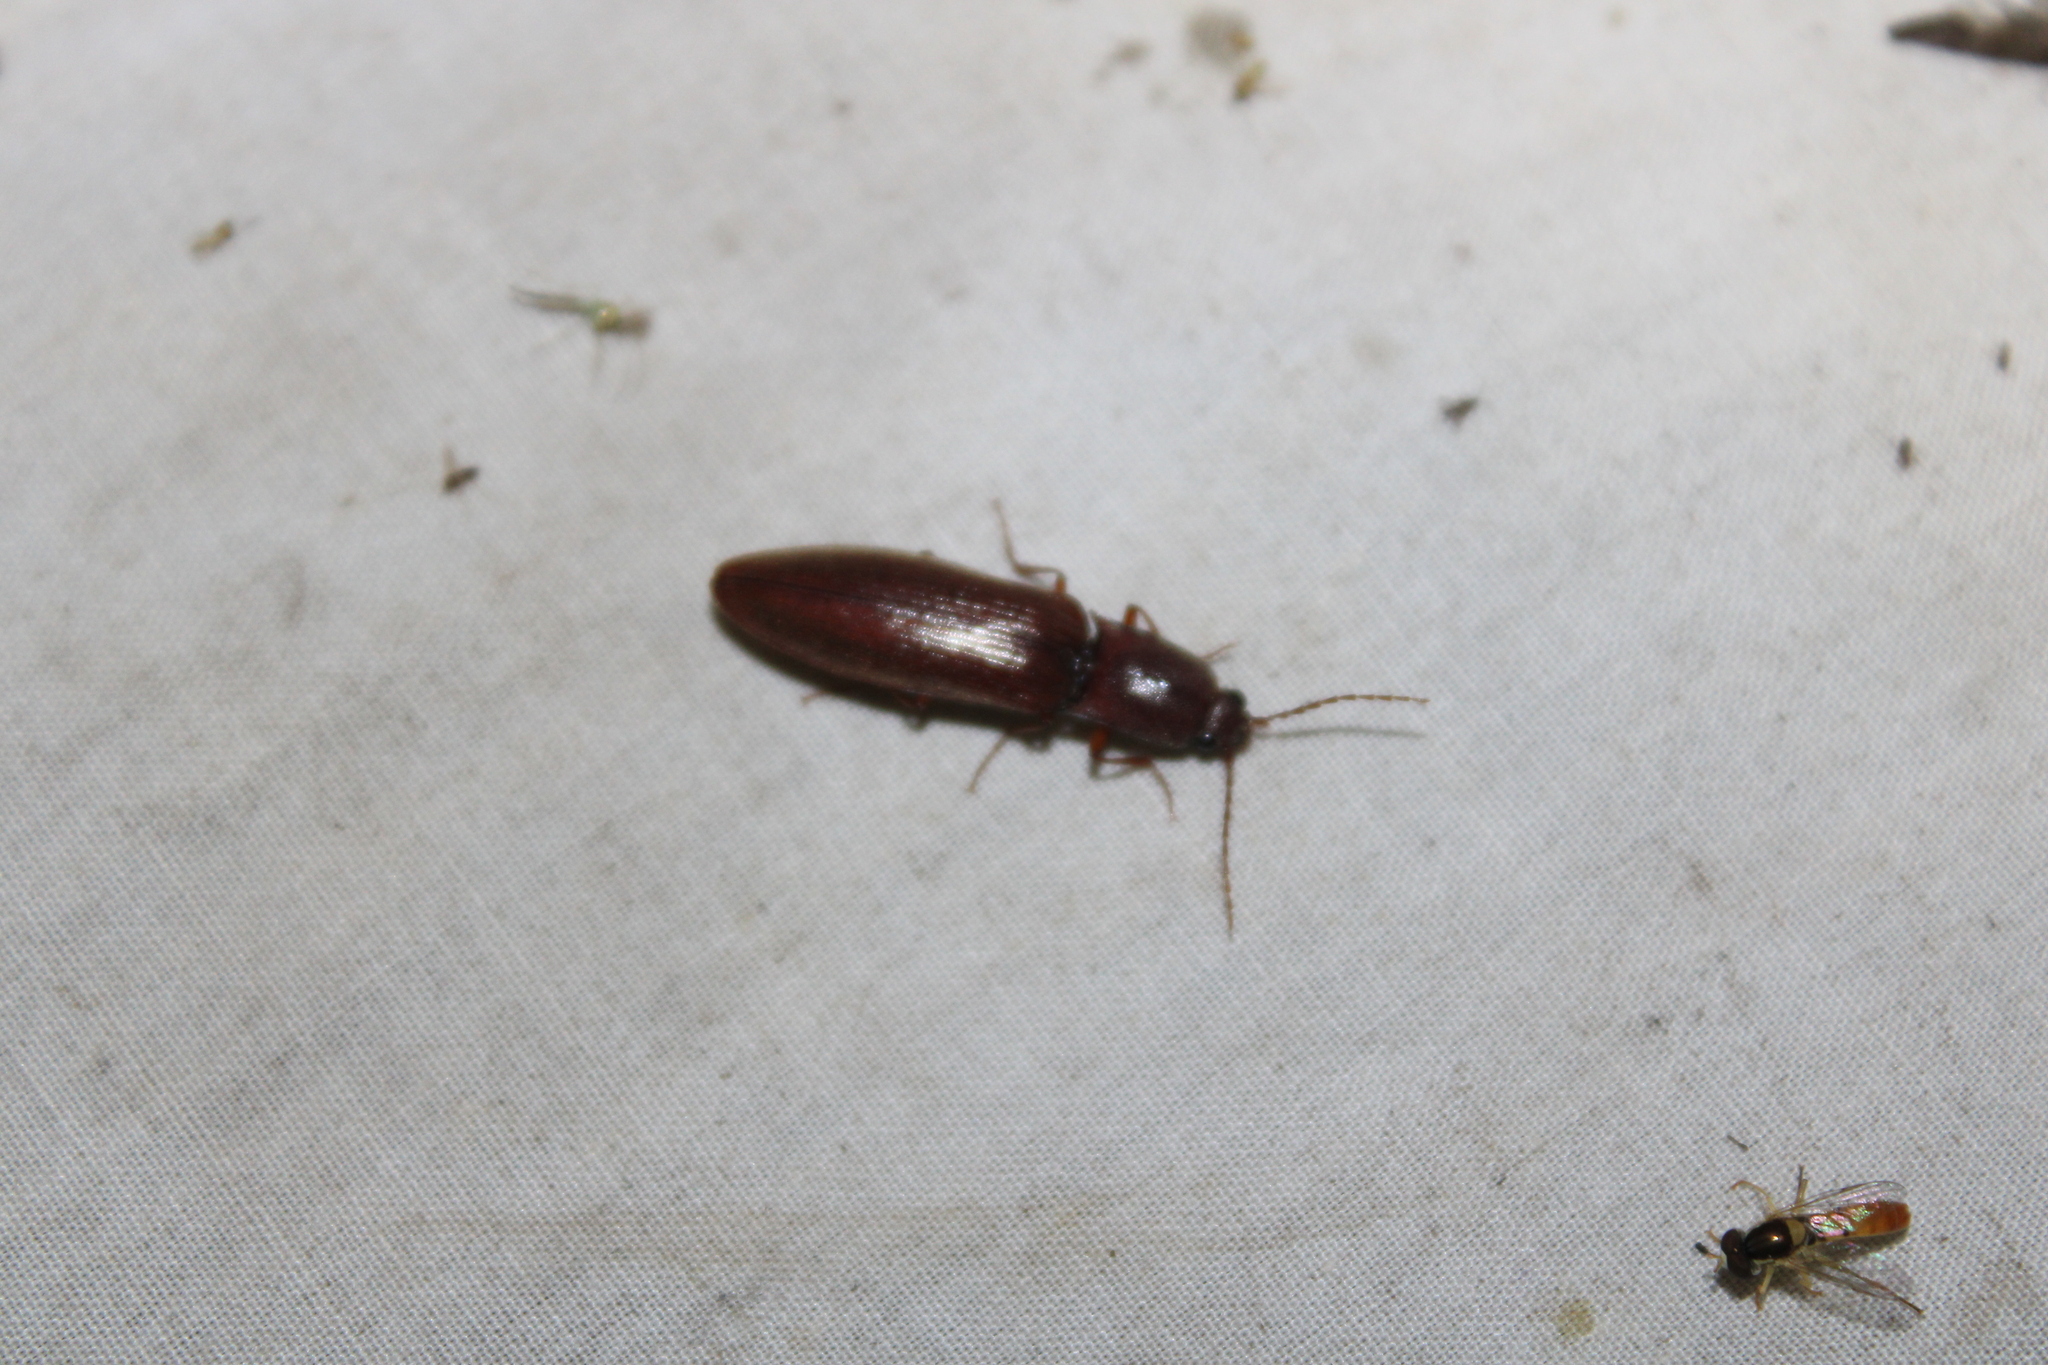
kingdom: Animalia
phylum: Arthropoda
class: Insecta
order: Coleoptera
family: Elateridae
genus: Proludius
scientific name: Proludius pyrros
